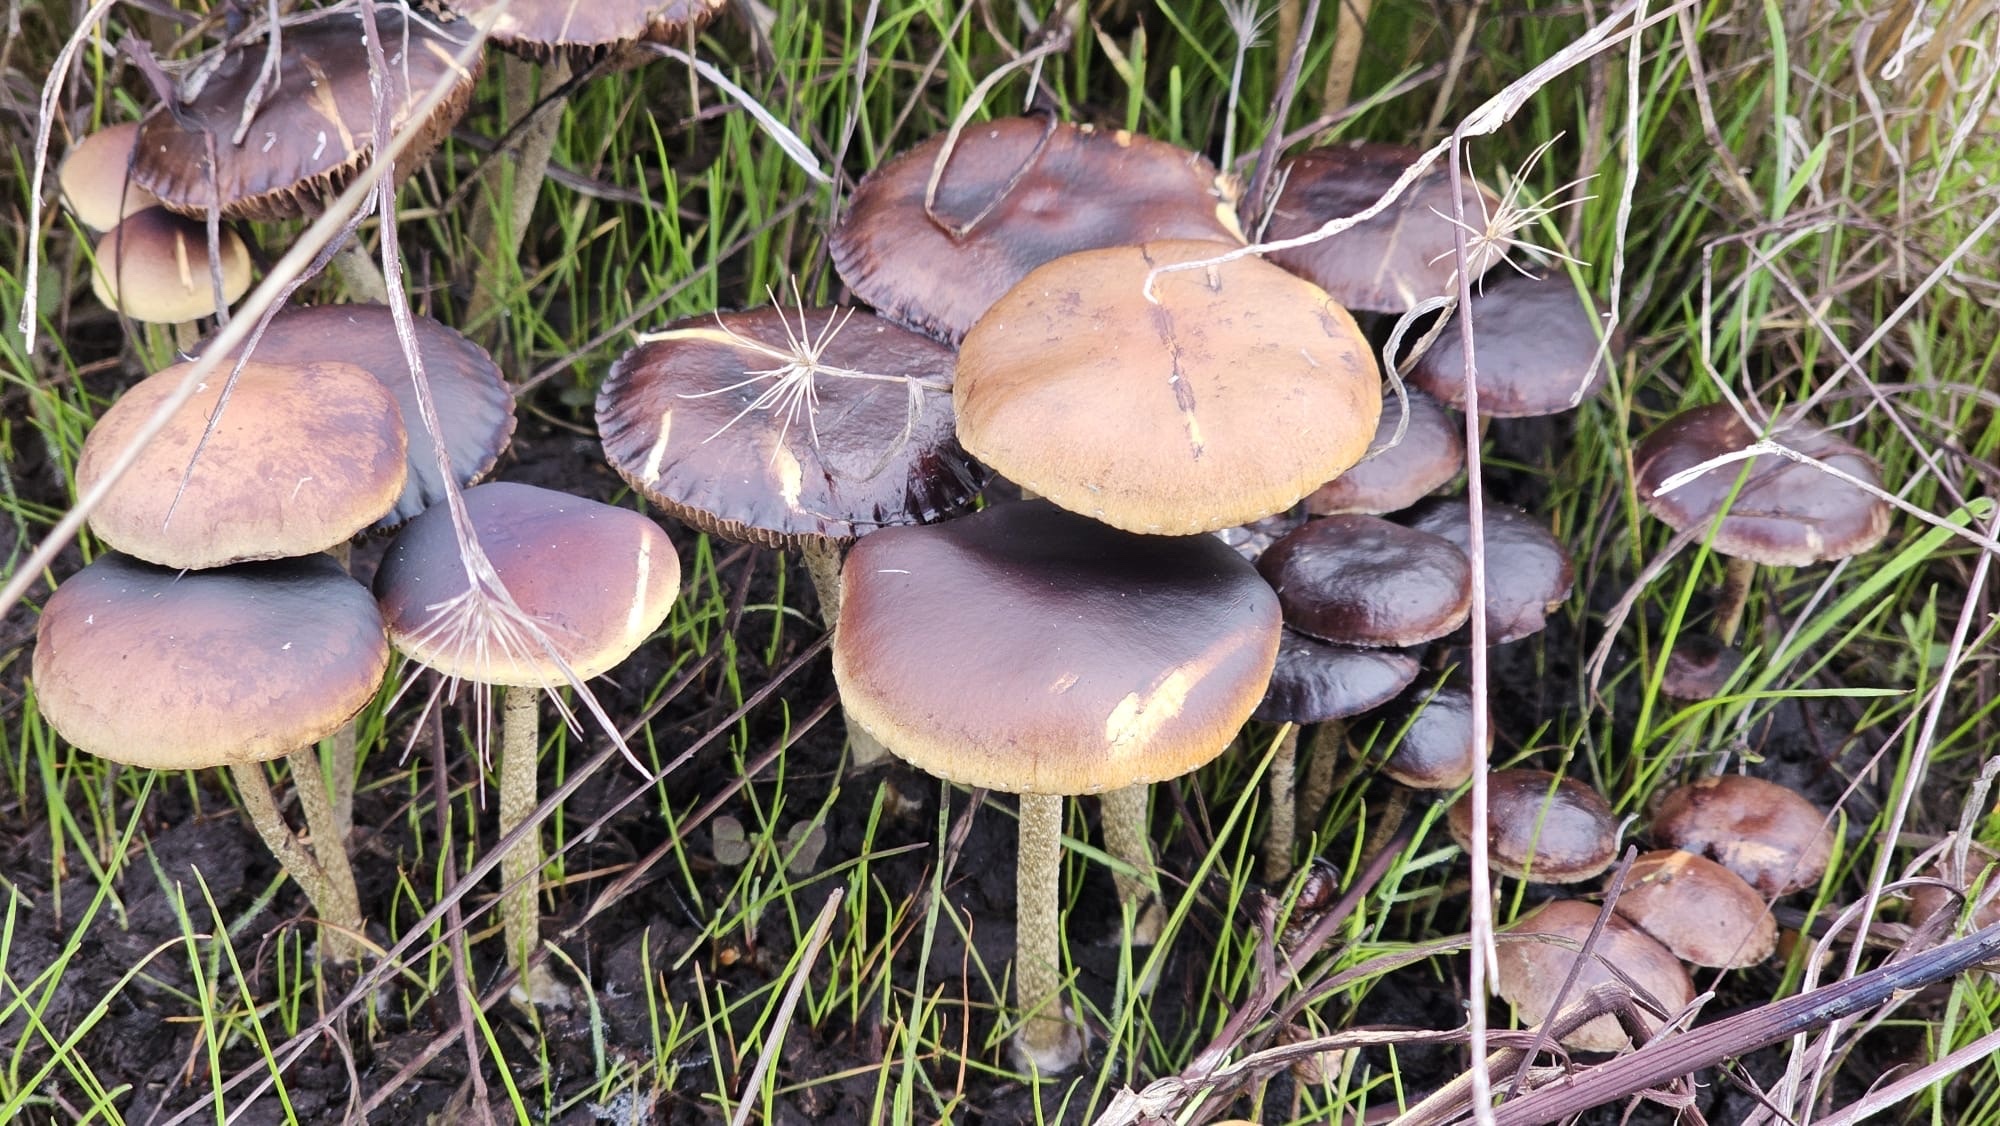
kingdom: Fungi
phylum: Basidiomycota
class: Agaricomycetes
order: Agaricales
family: Strophariaceae
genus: Deconica
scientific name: Deconica coprophila
